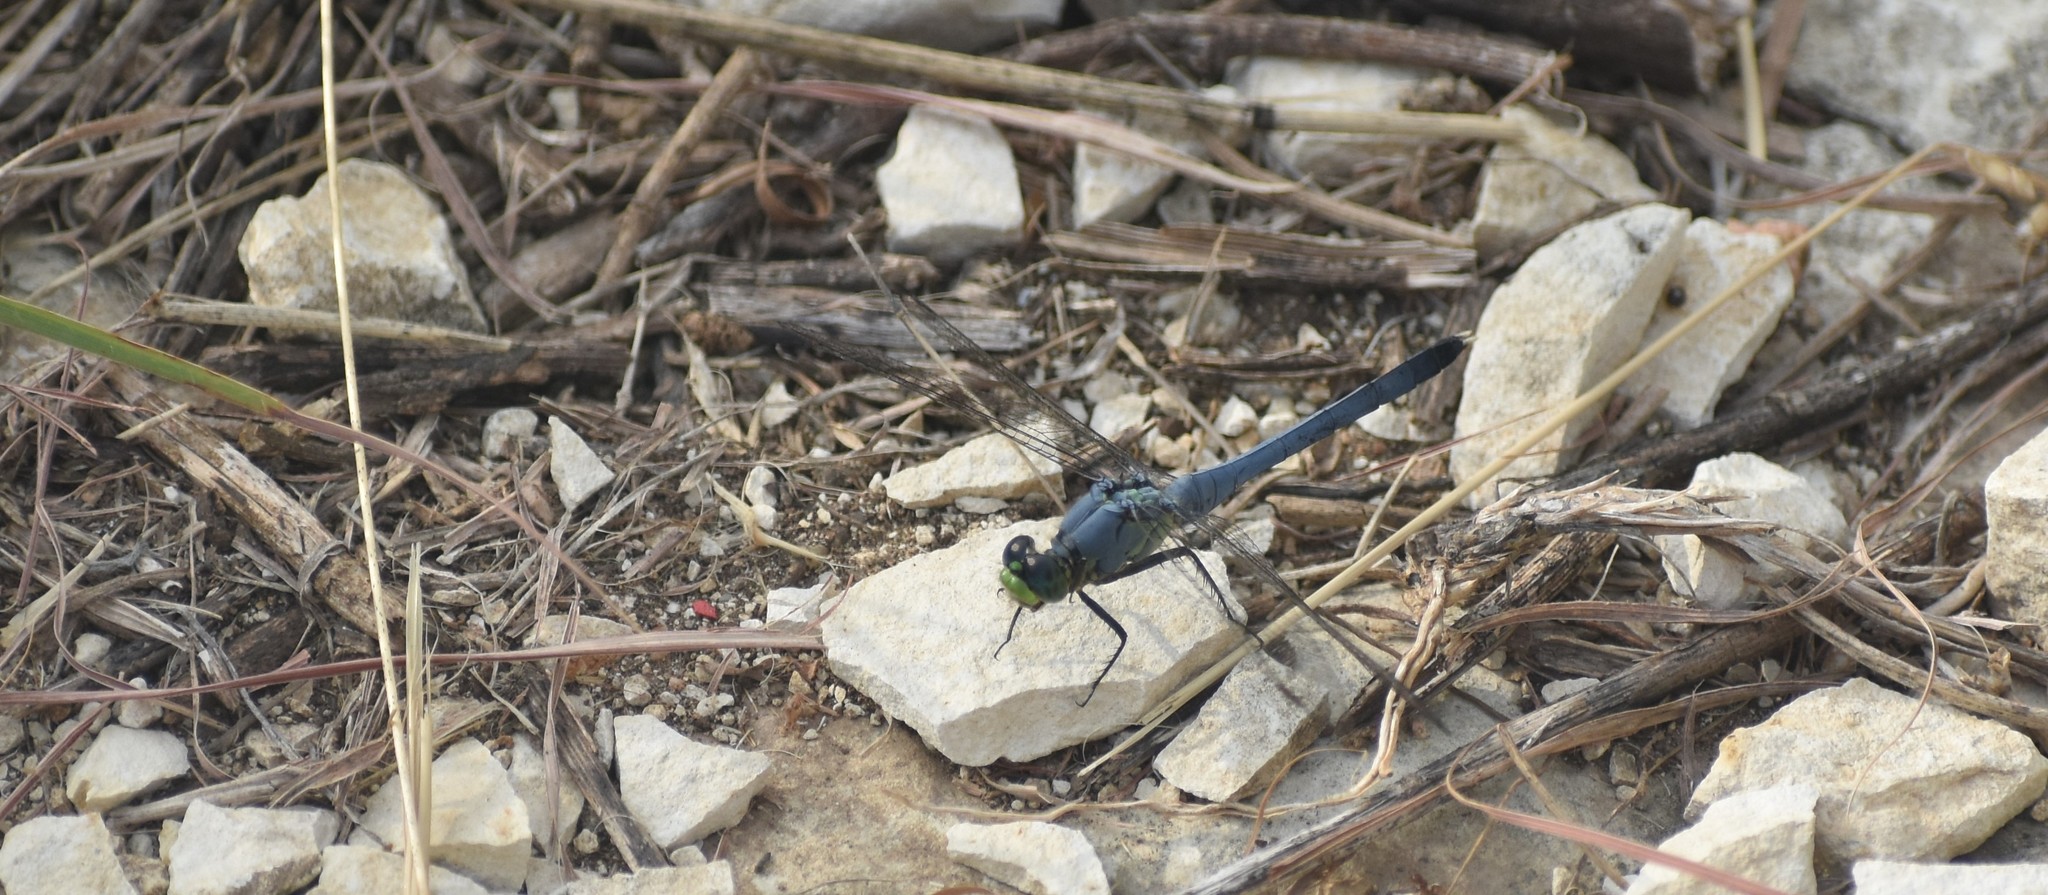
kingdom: Animalia
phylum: Arthropoda
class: Insecta
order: Odonata
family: Libellulidae
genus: Erythemis
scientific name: Erythemis simplicicollis
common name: Eastern pondhawk
